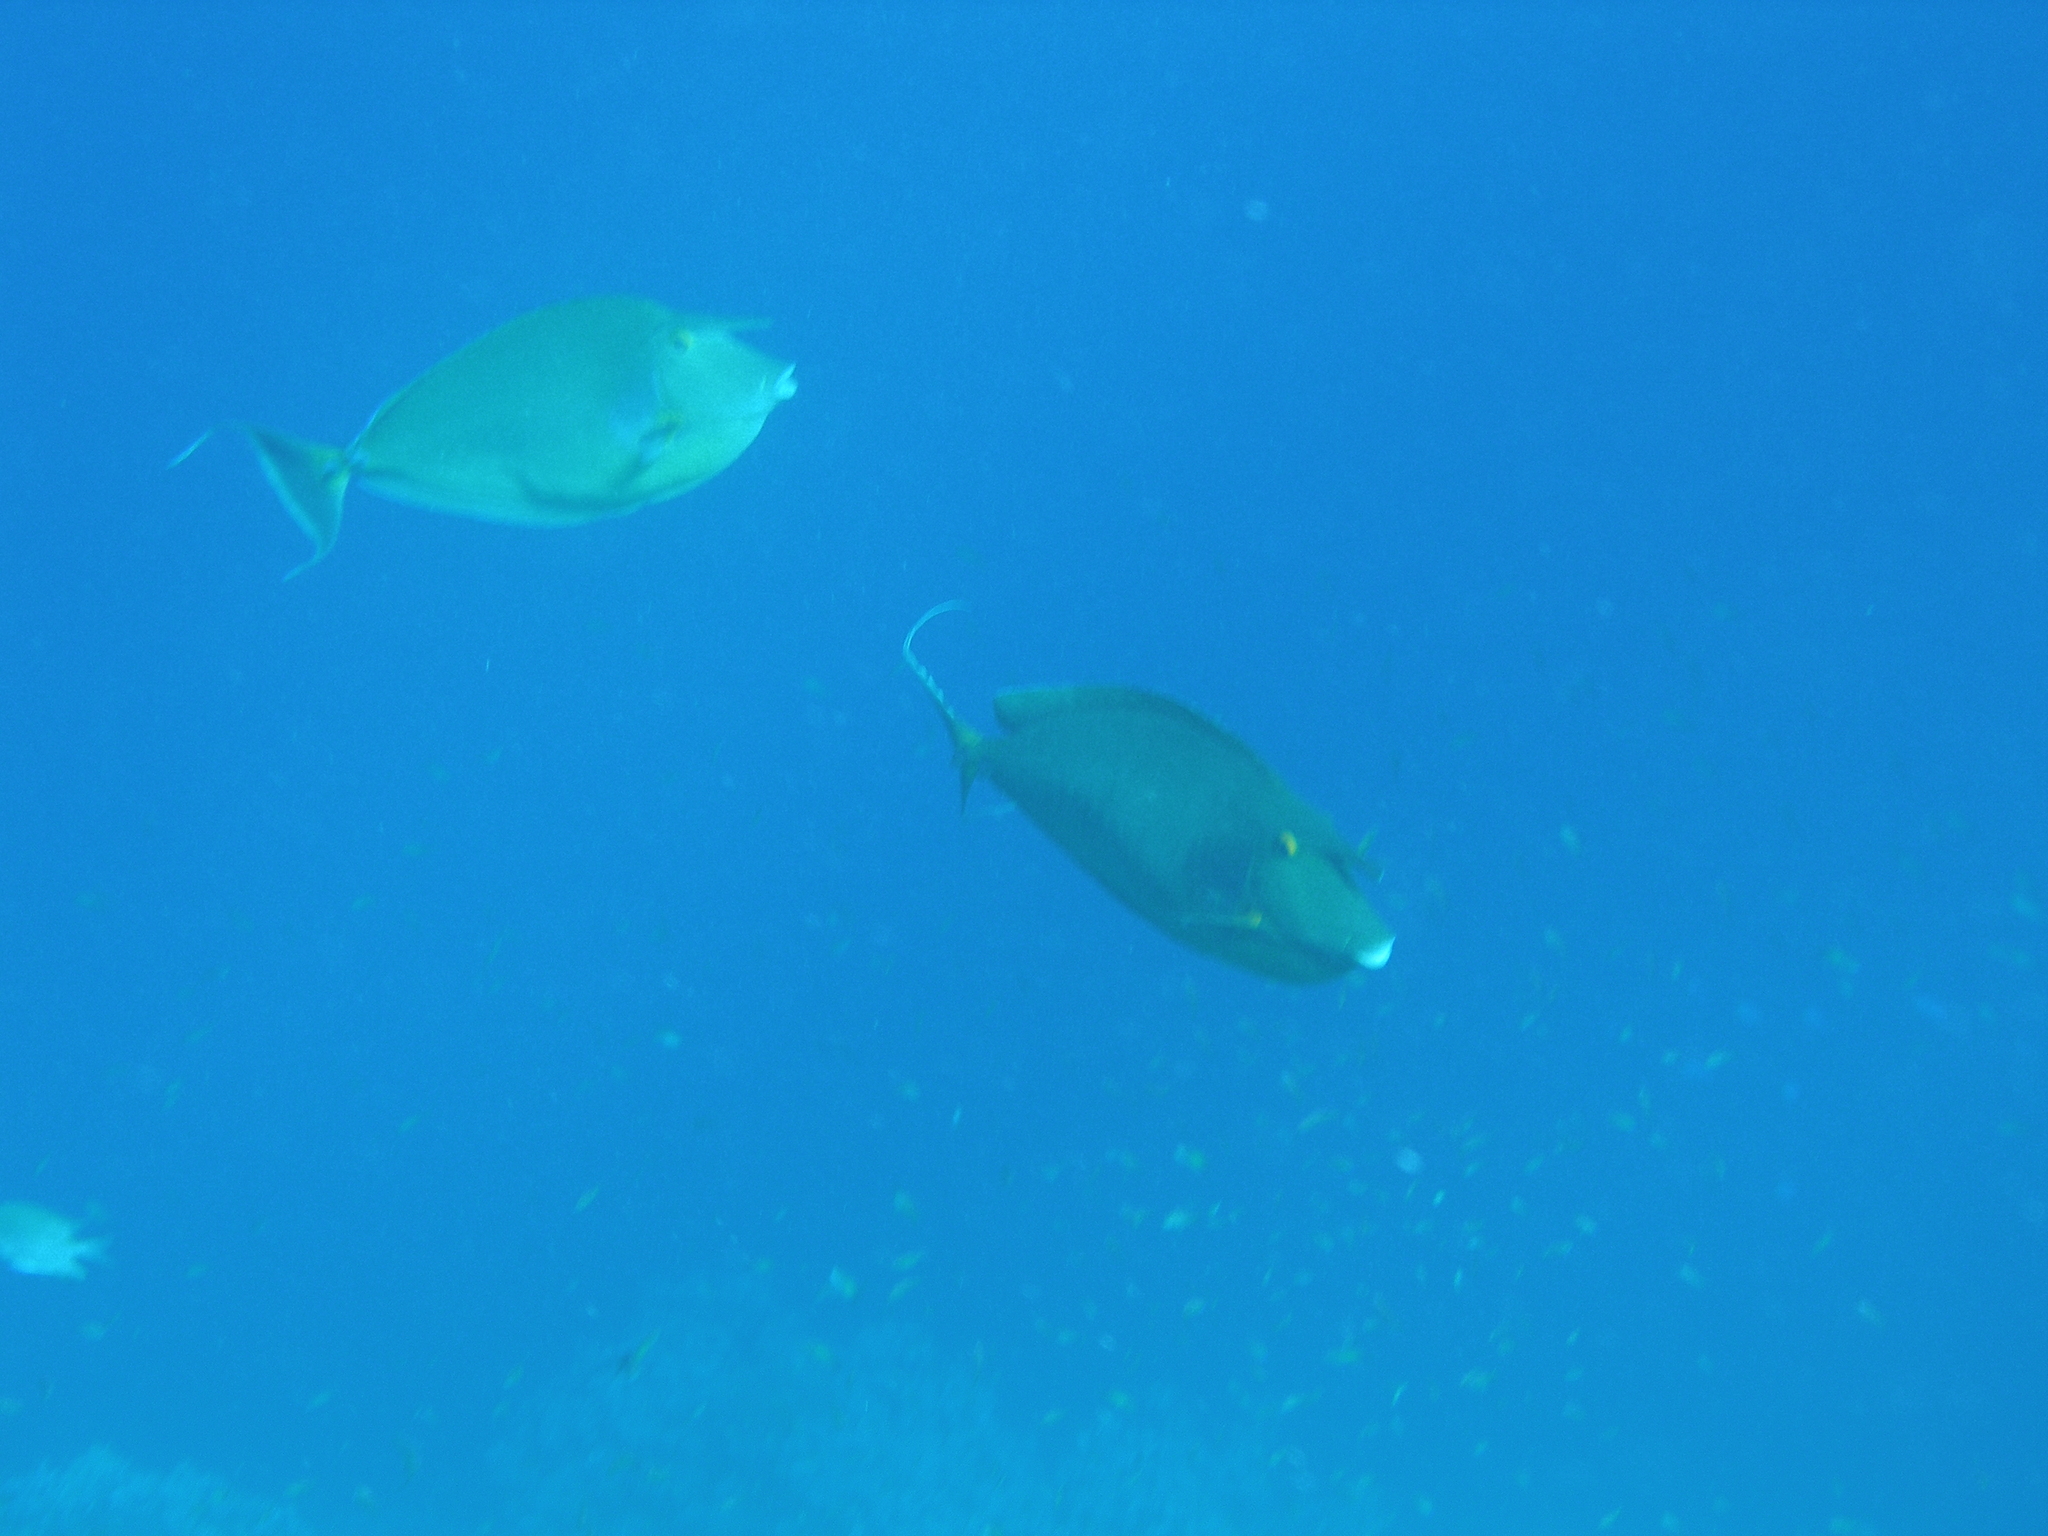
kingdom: Animalia
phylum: Chordata
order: Perciformes
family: Acanthuridae
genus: Naso
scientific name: Naso unicornis
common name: Bluespine unicornfish
